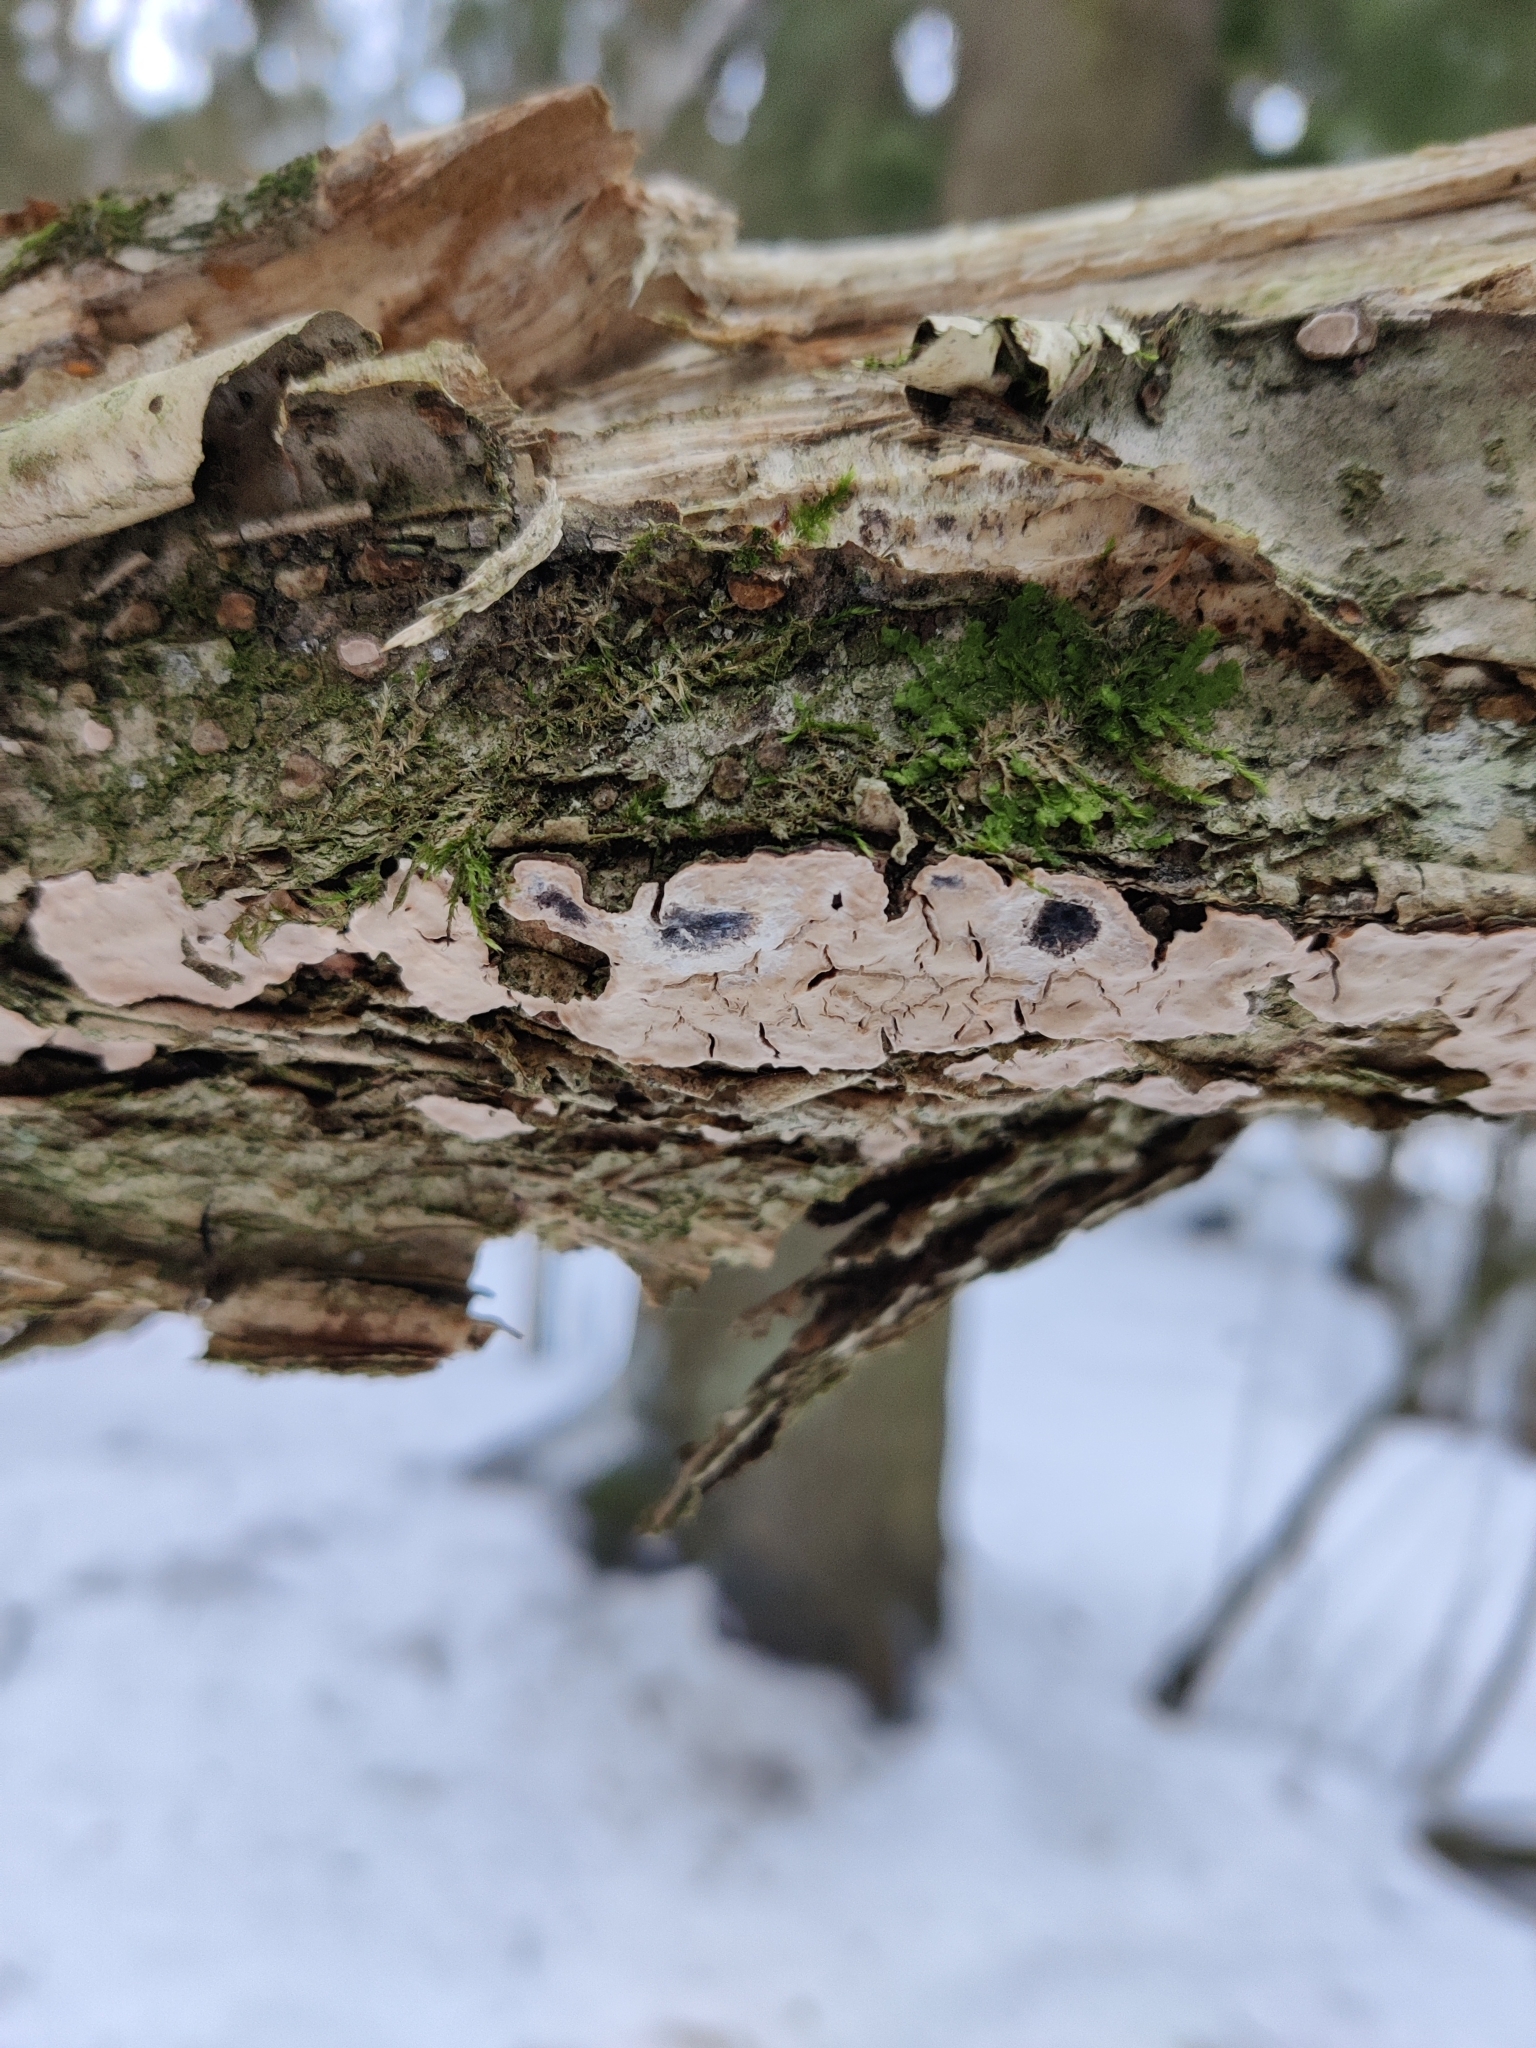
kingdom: Fungi
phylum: Basidiomycota
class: Agaricomycetes
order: Russulales
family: Stereaceae
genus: Stereum
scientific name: Stereum rugosum
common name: Bleeding broadleaf crust
